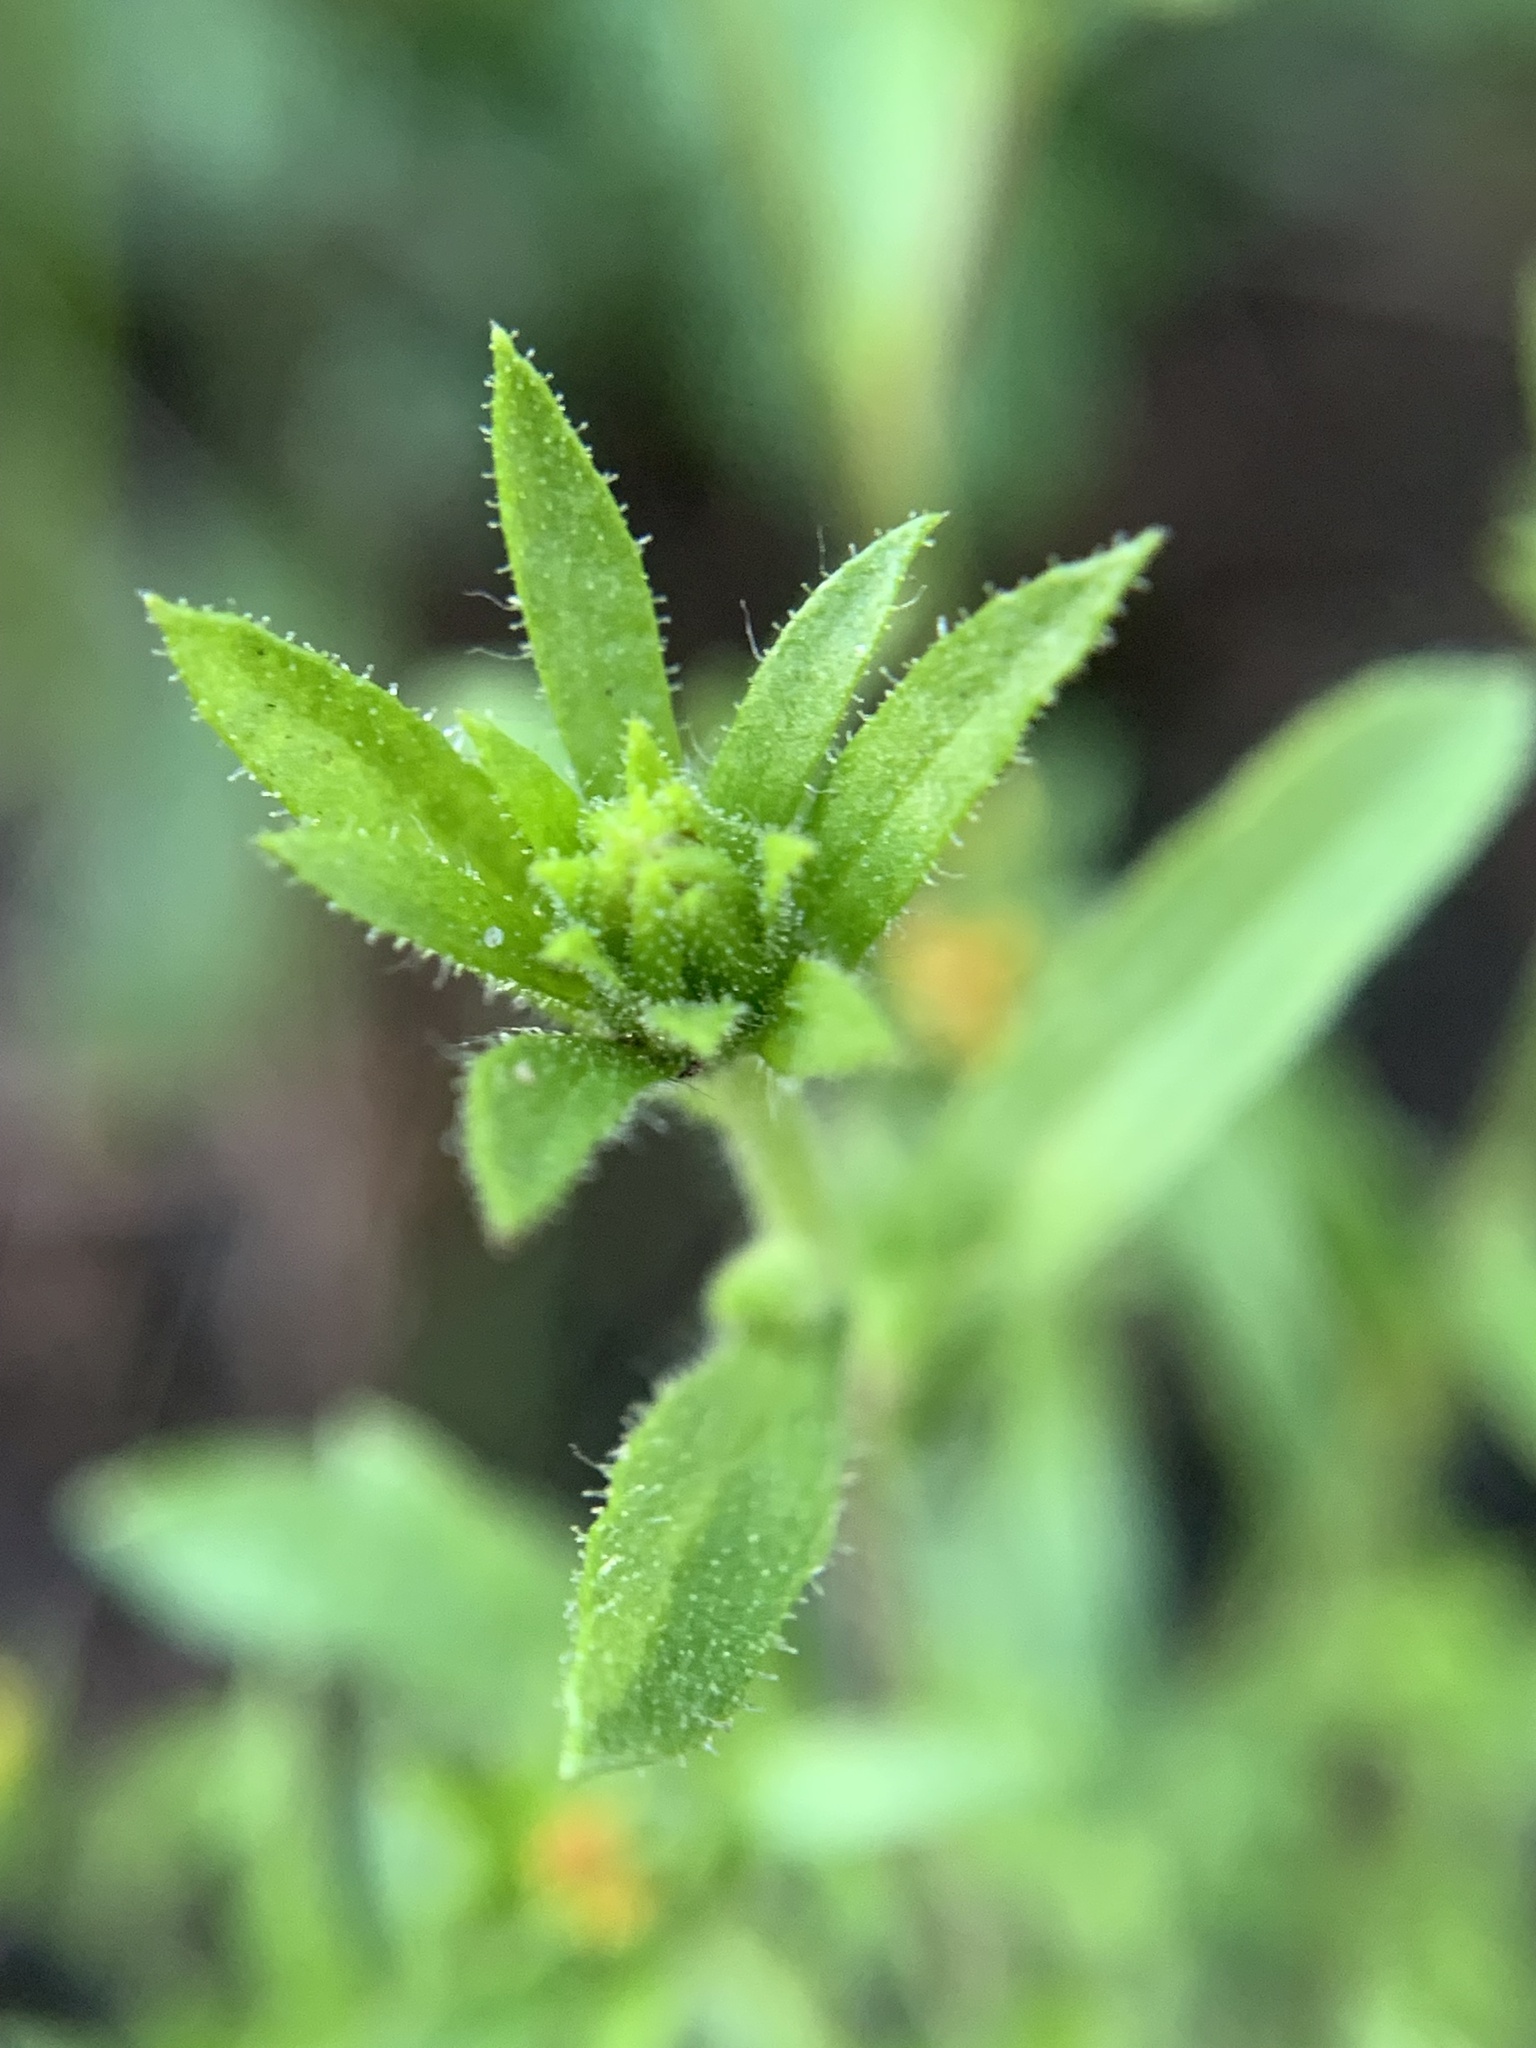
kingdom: Plantae
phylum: Tracheophyta
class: Magnoliopsida
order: Asterales
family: Asteraceae
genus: Dittrichia
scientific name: Dittrichia graveolens
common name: Stinking fleabane
